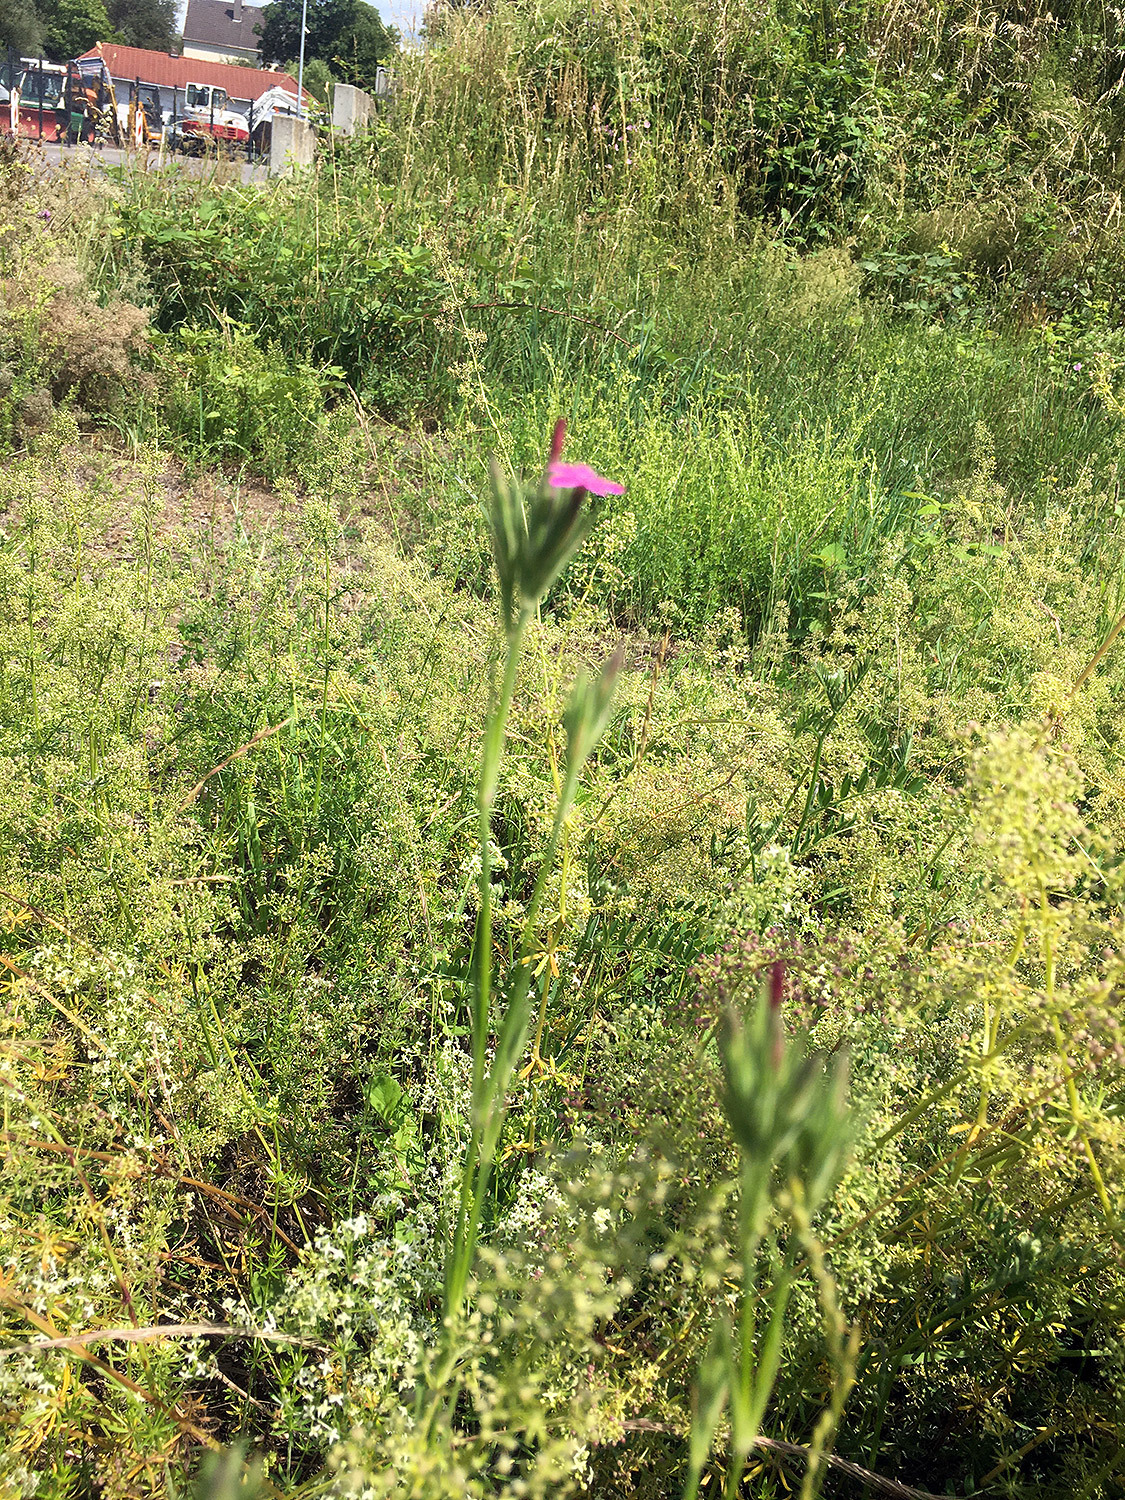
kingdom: Plantae
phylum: Tracheophyta
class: Magnoliopsida
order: Caryophyllales
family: Caryophyllaceae
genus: Dianthus
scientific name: Dianthus armeria
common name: Deptford pink
